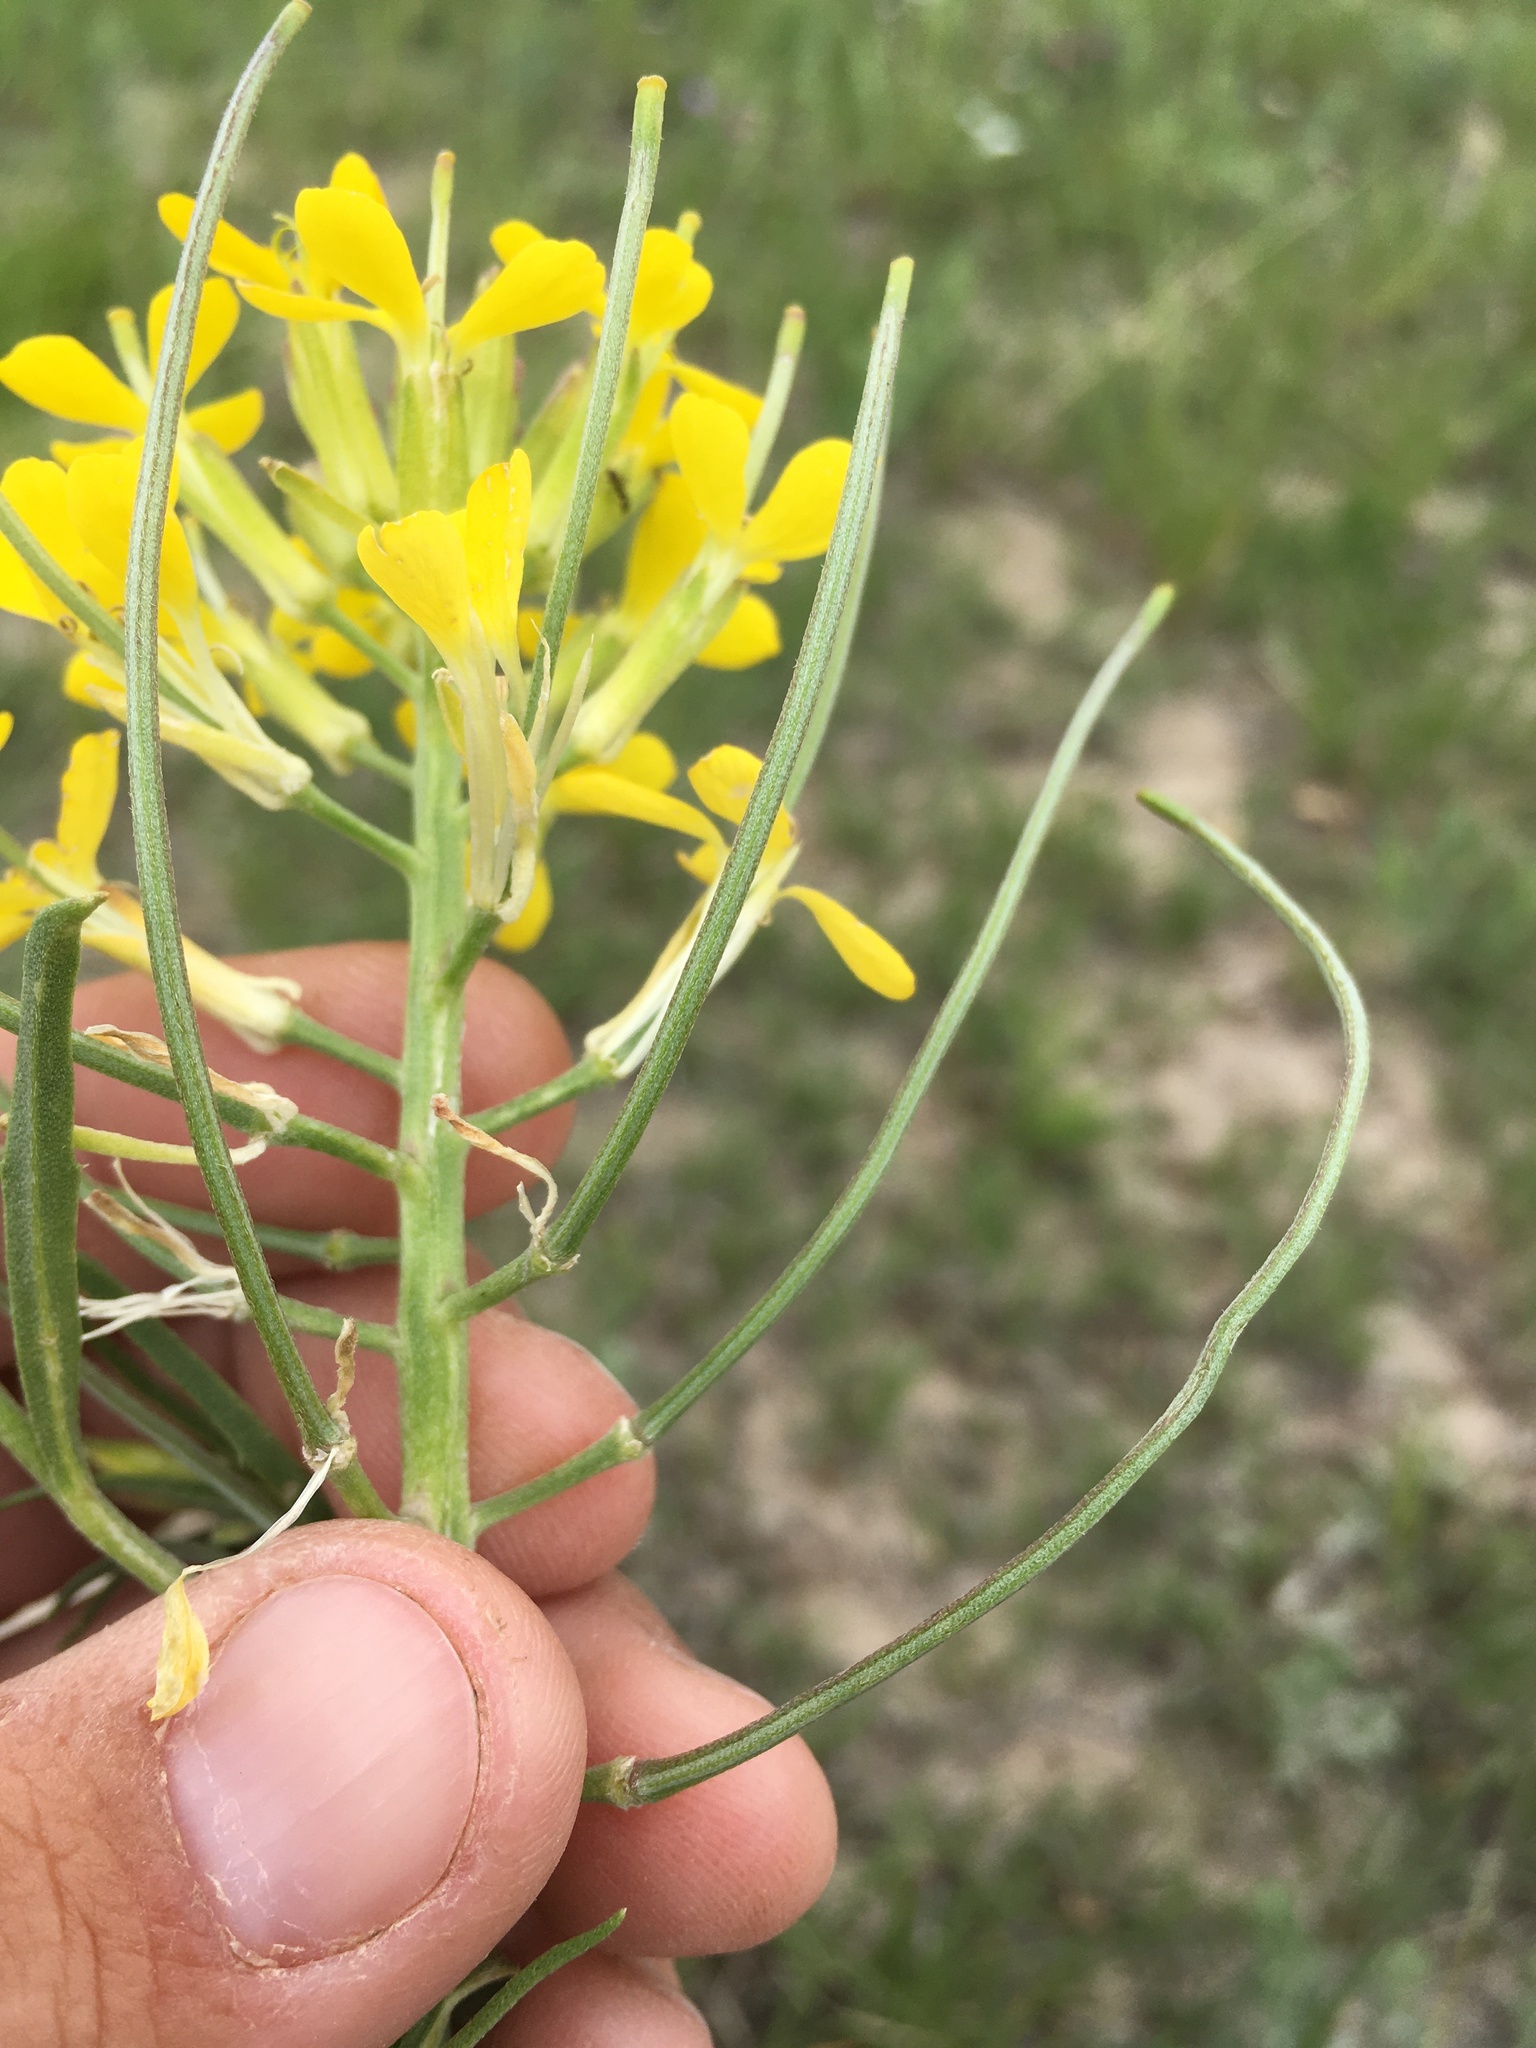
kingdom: Plantae
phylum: Tracheophyta
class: Magnoliopsida
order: Brassicales
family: Brassicaceae
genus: Erysimum
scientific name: Erysimum asperum
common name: Western wallflower
